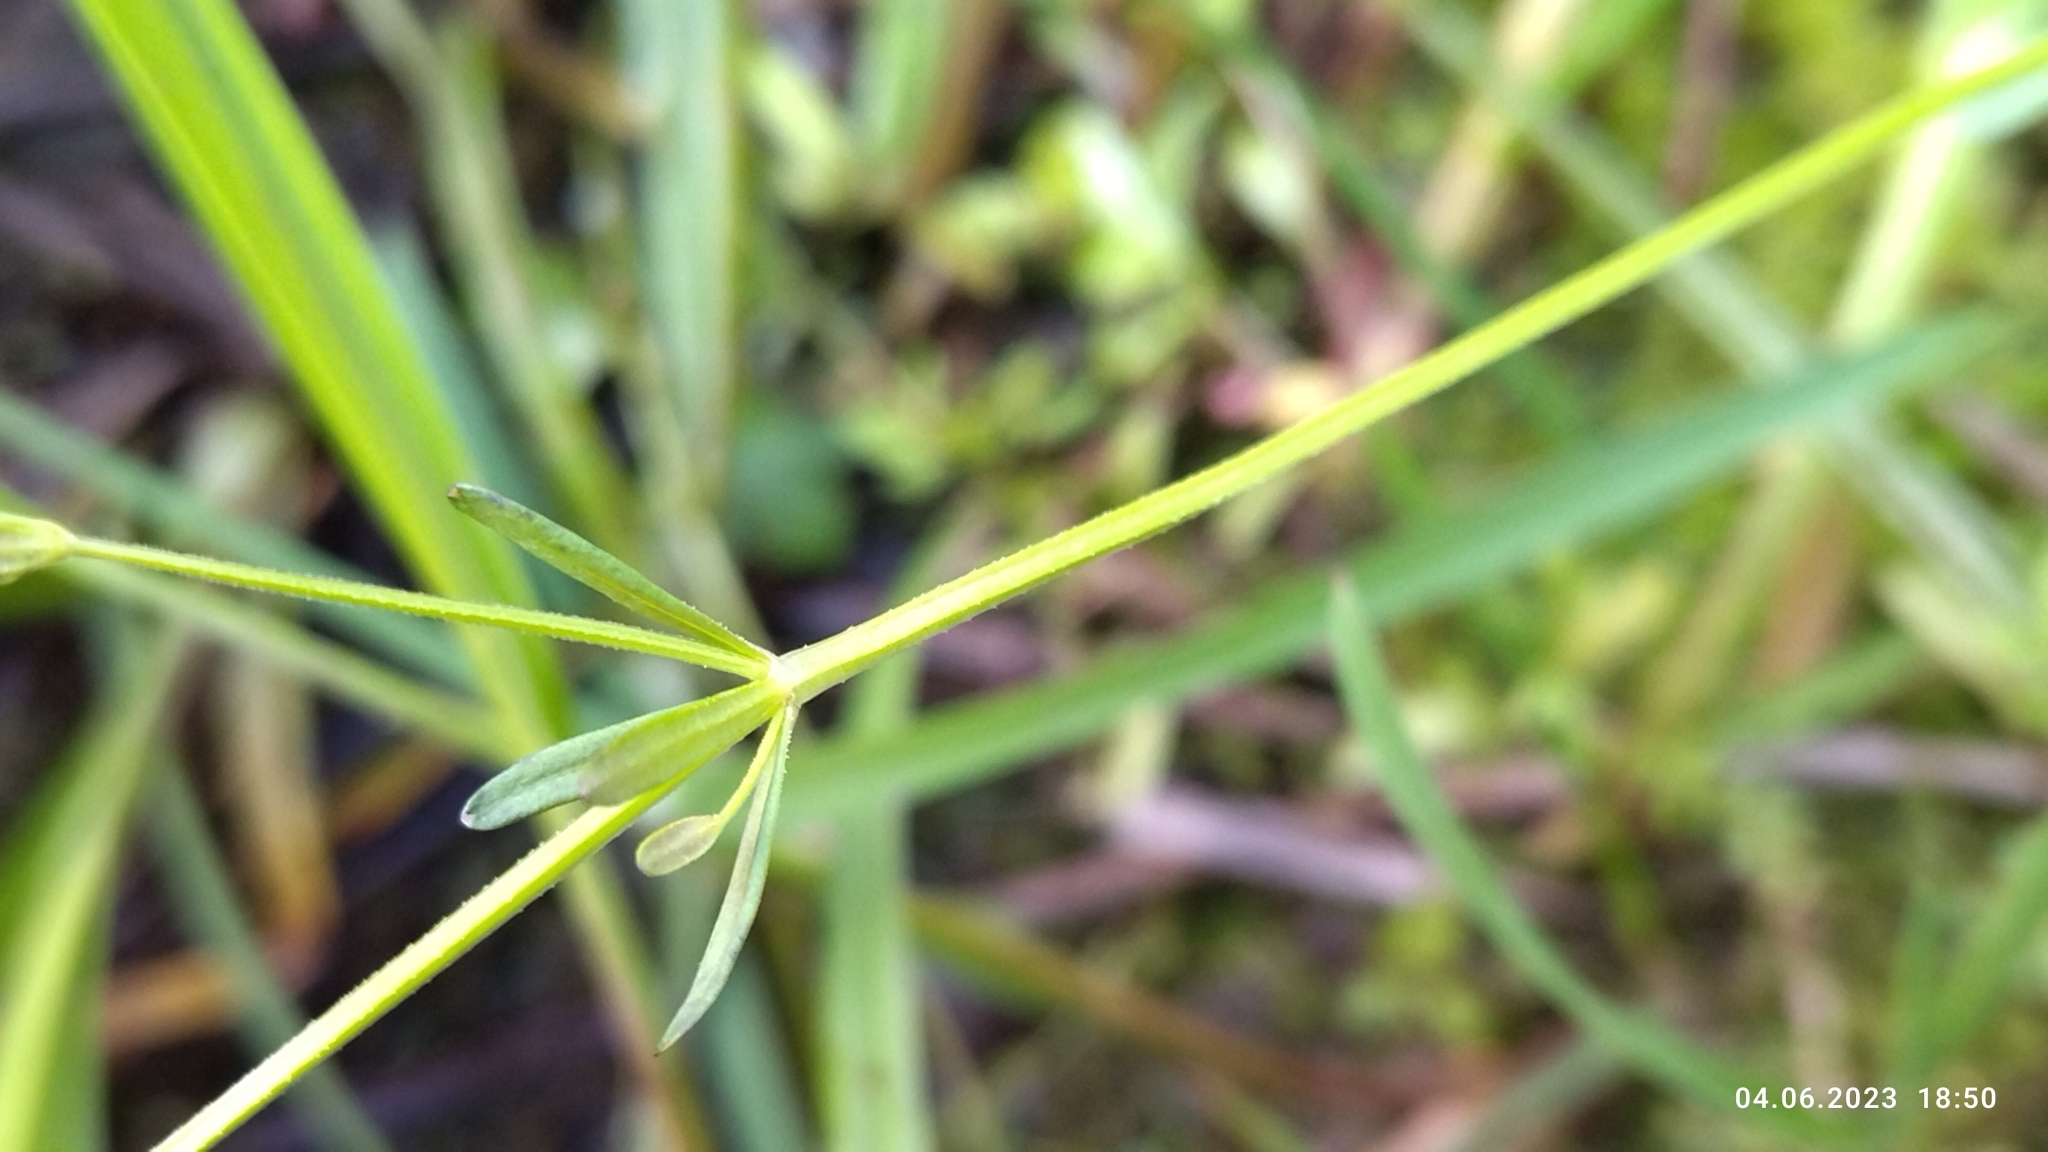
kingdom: Plantae
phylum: Tracheophyta
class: Magnoliopsida
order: Gentianales
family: Rubiaceae
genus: Galium
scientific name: Galium palustre
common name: Common marsh-bedstraw
